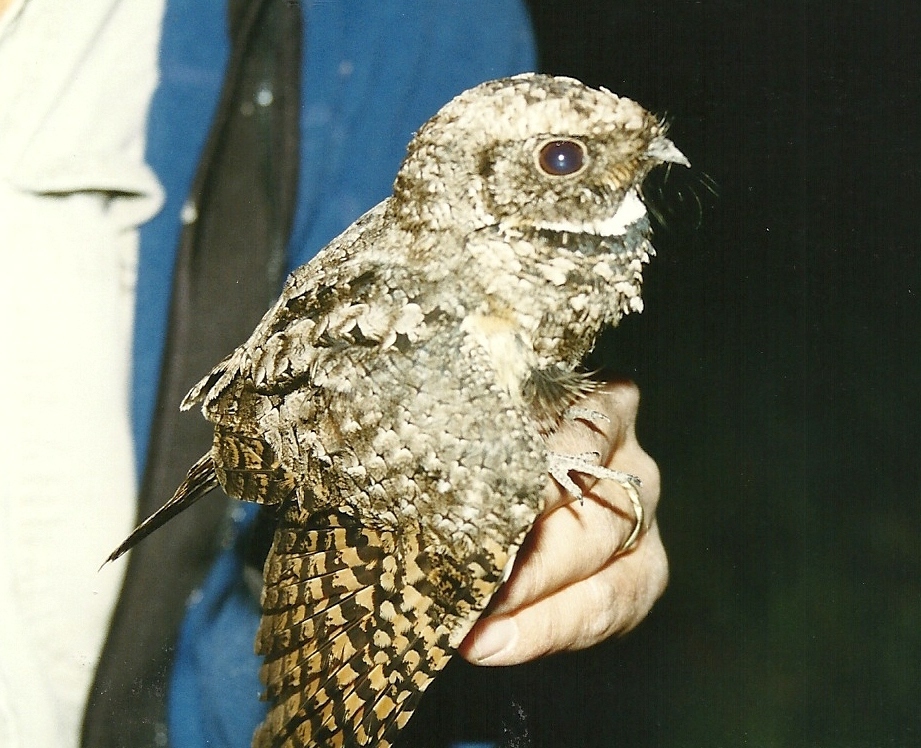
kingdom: Animalia
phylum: Chordata
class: Aves
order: Caprimulgiformes
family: Caprimulgidae
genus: Phalaenoptilus
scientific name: Phalaenoptilus nuttallii
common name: Common poorwill
